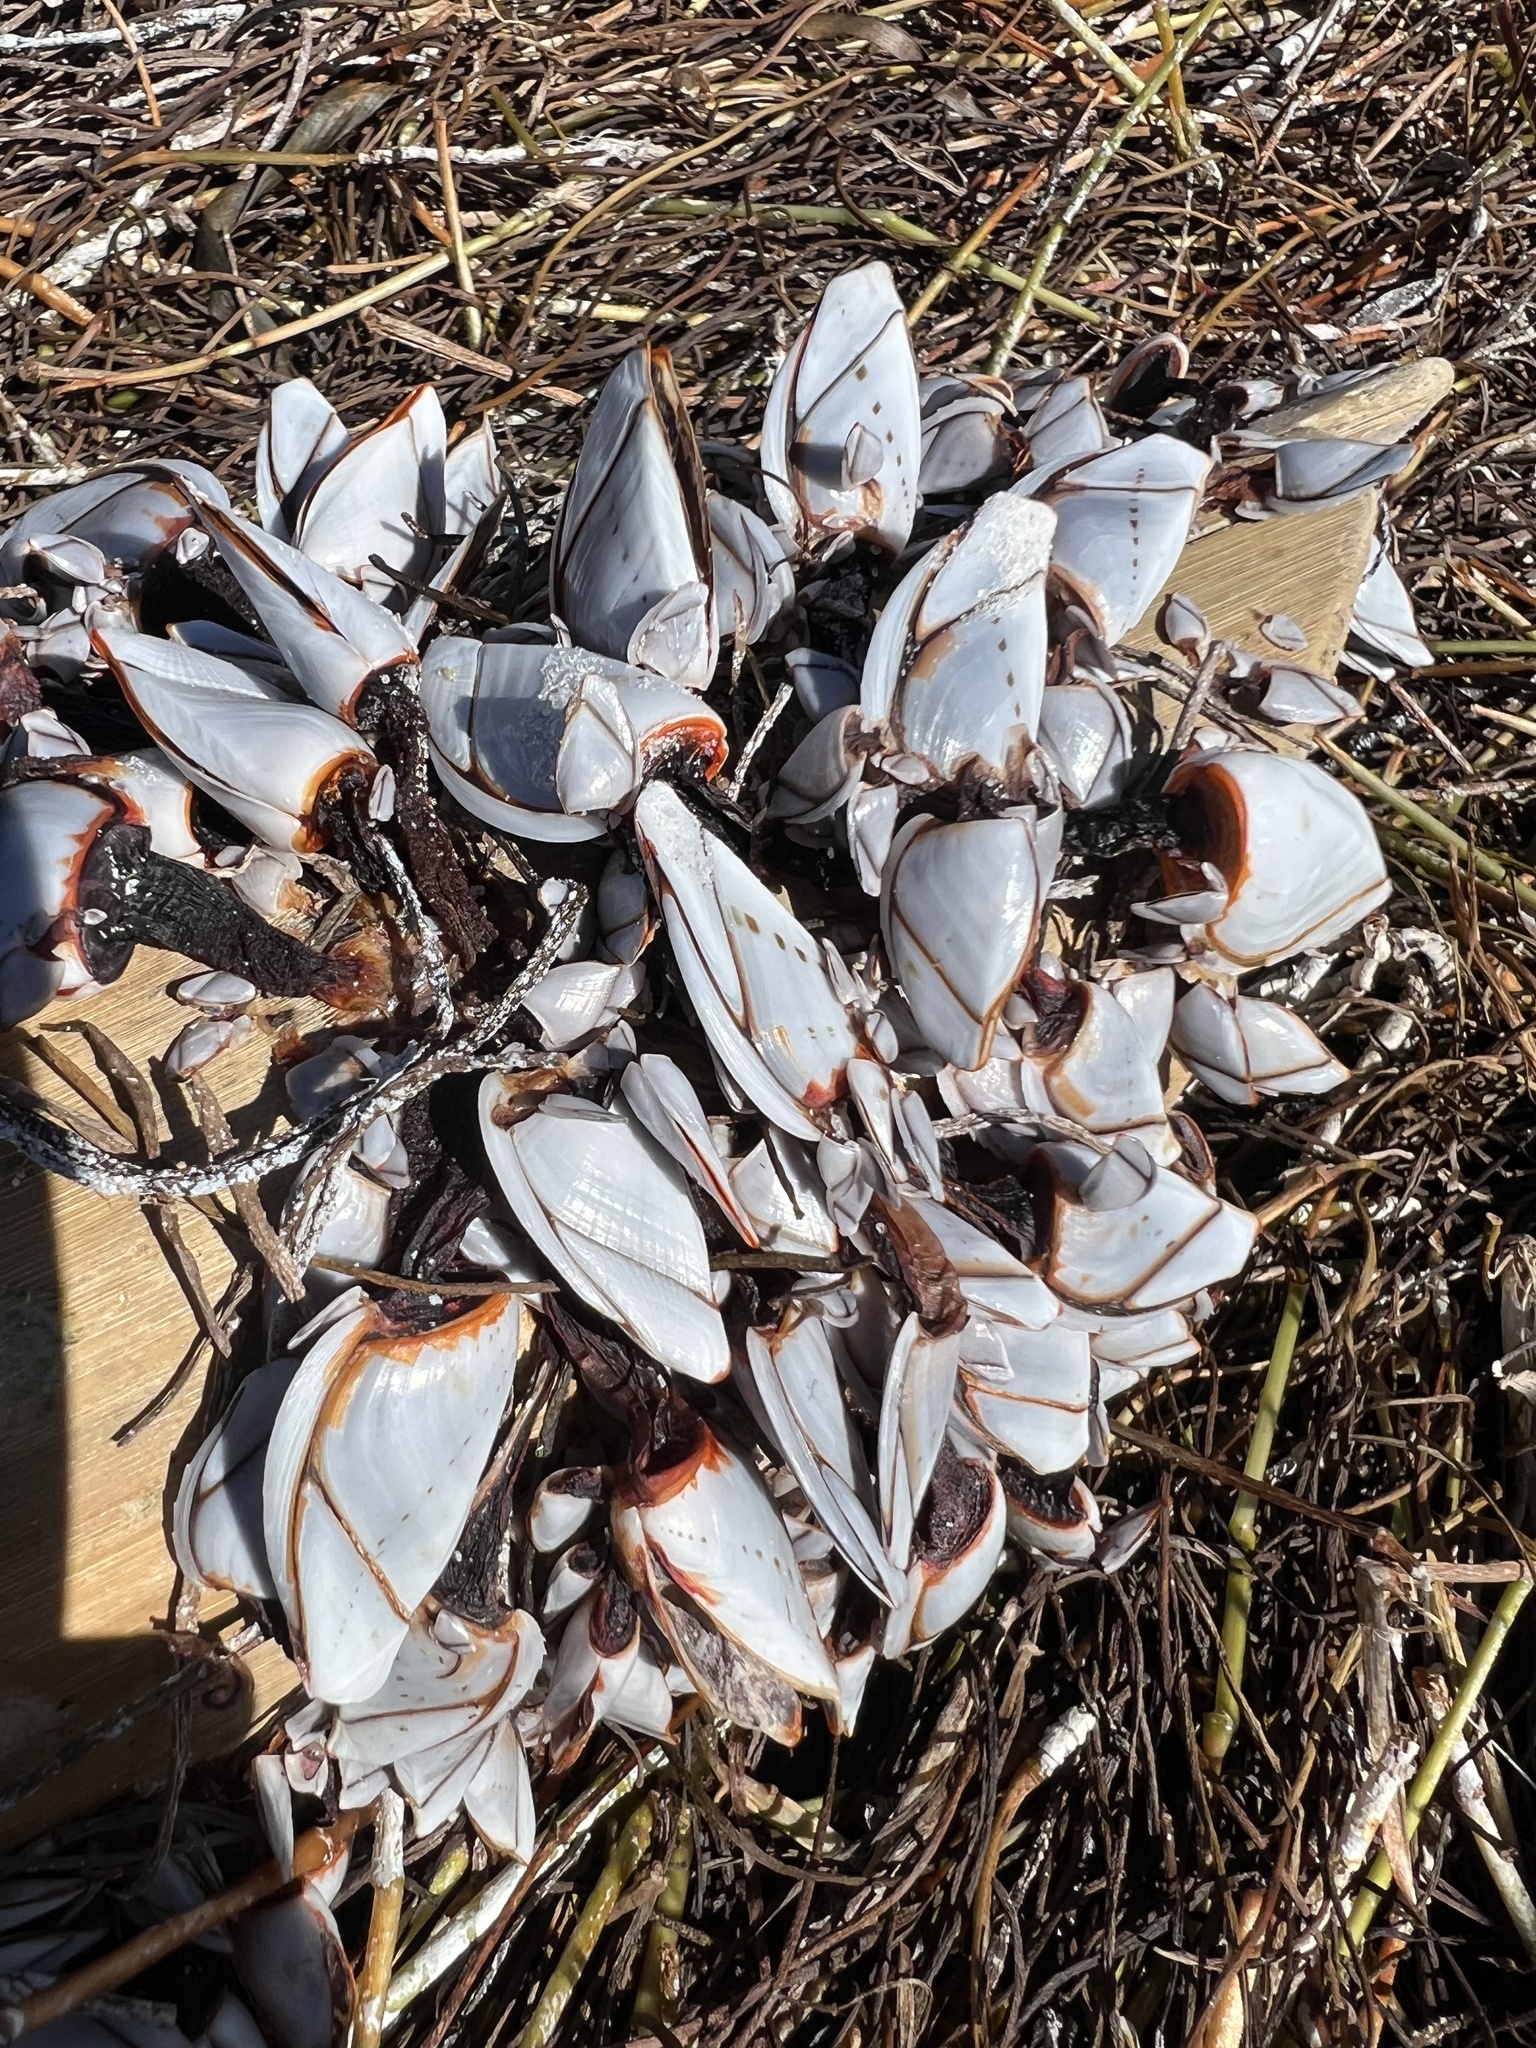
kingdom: Animalia
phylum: Arthropoda
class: Maxillopoda
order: Pedunculata
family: Lepadidae
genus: Lepas
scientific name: Lepas indica
